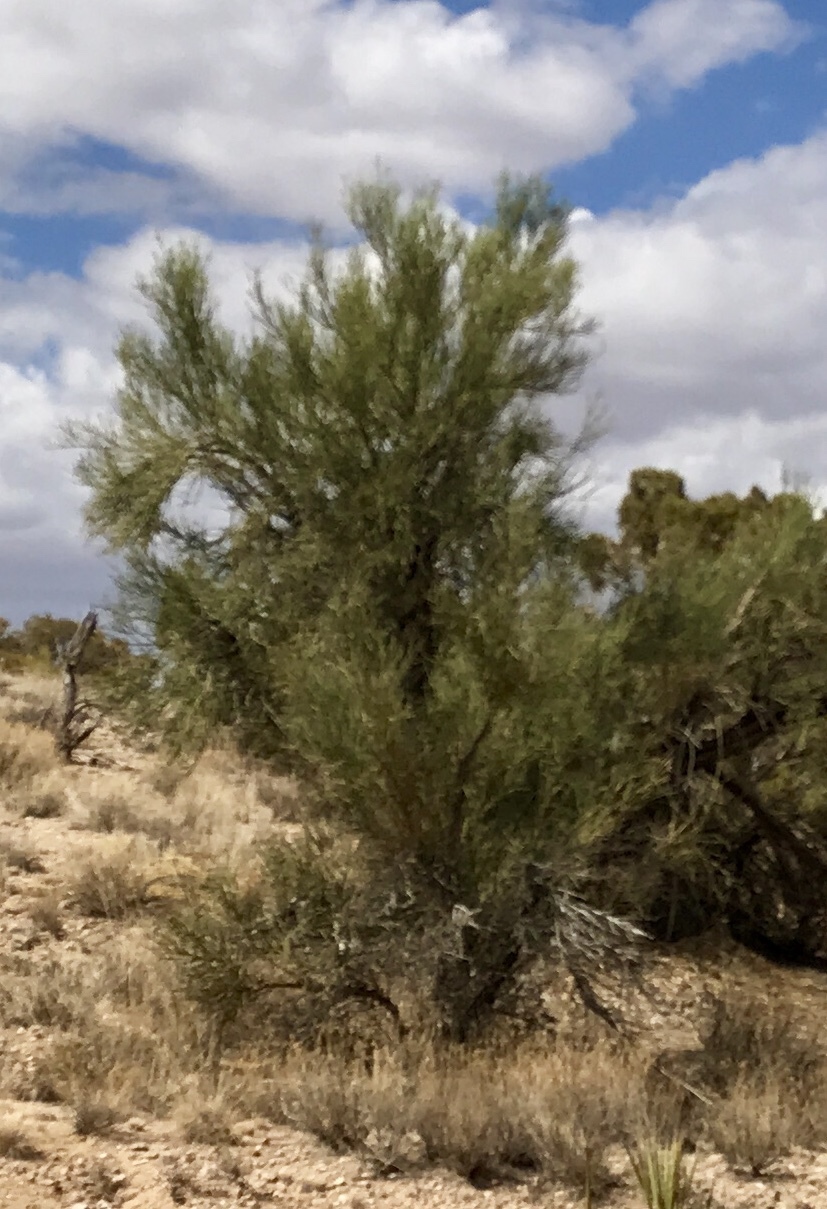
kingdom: Plantae
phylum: Tracheophyta
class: Magnoliopsida
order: Celastrales
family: Celastraceae
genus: Canotia
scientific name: Canotia holacantha
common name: Crucifixion thorns
